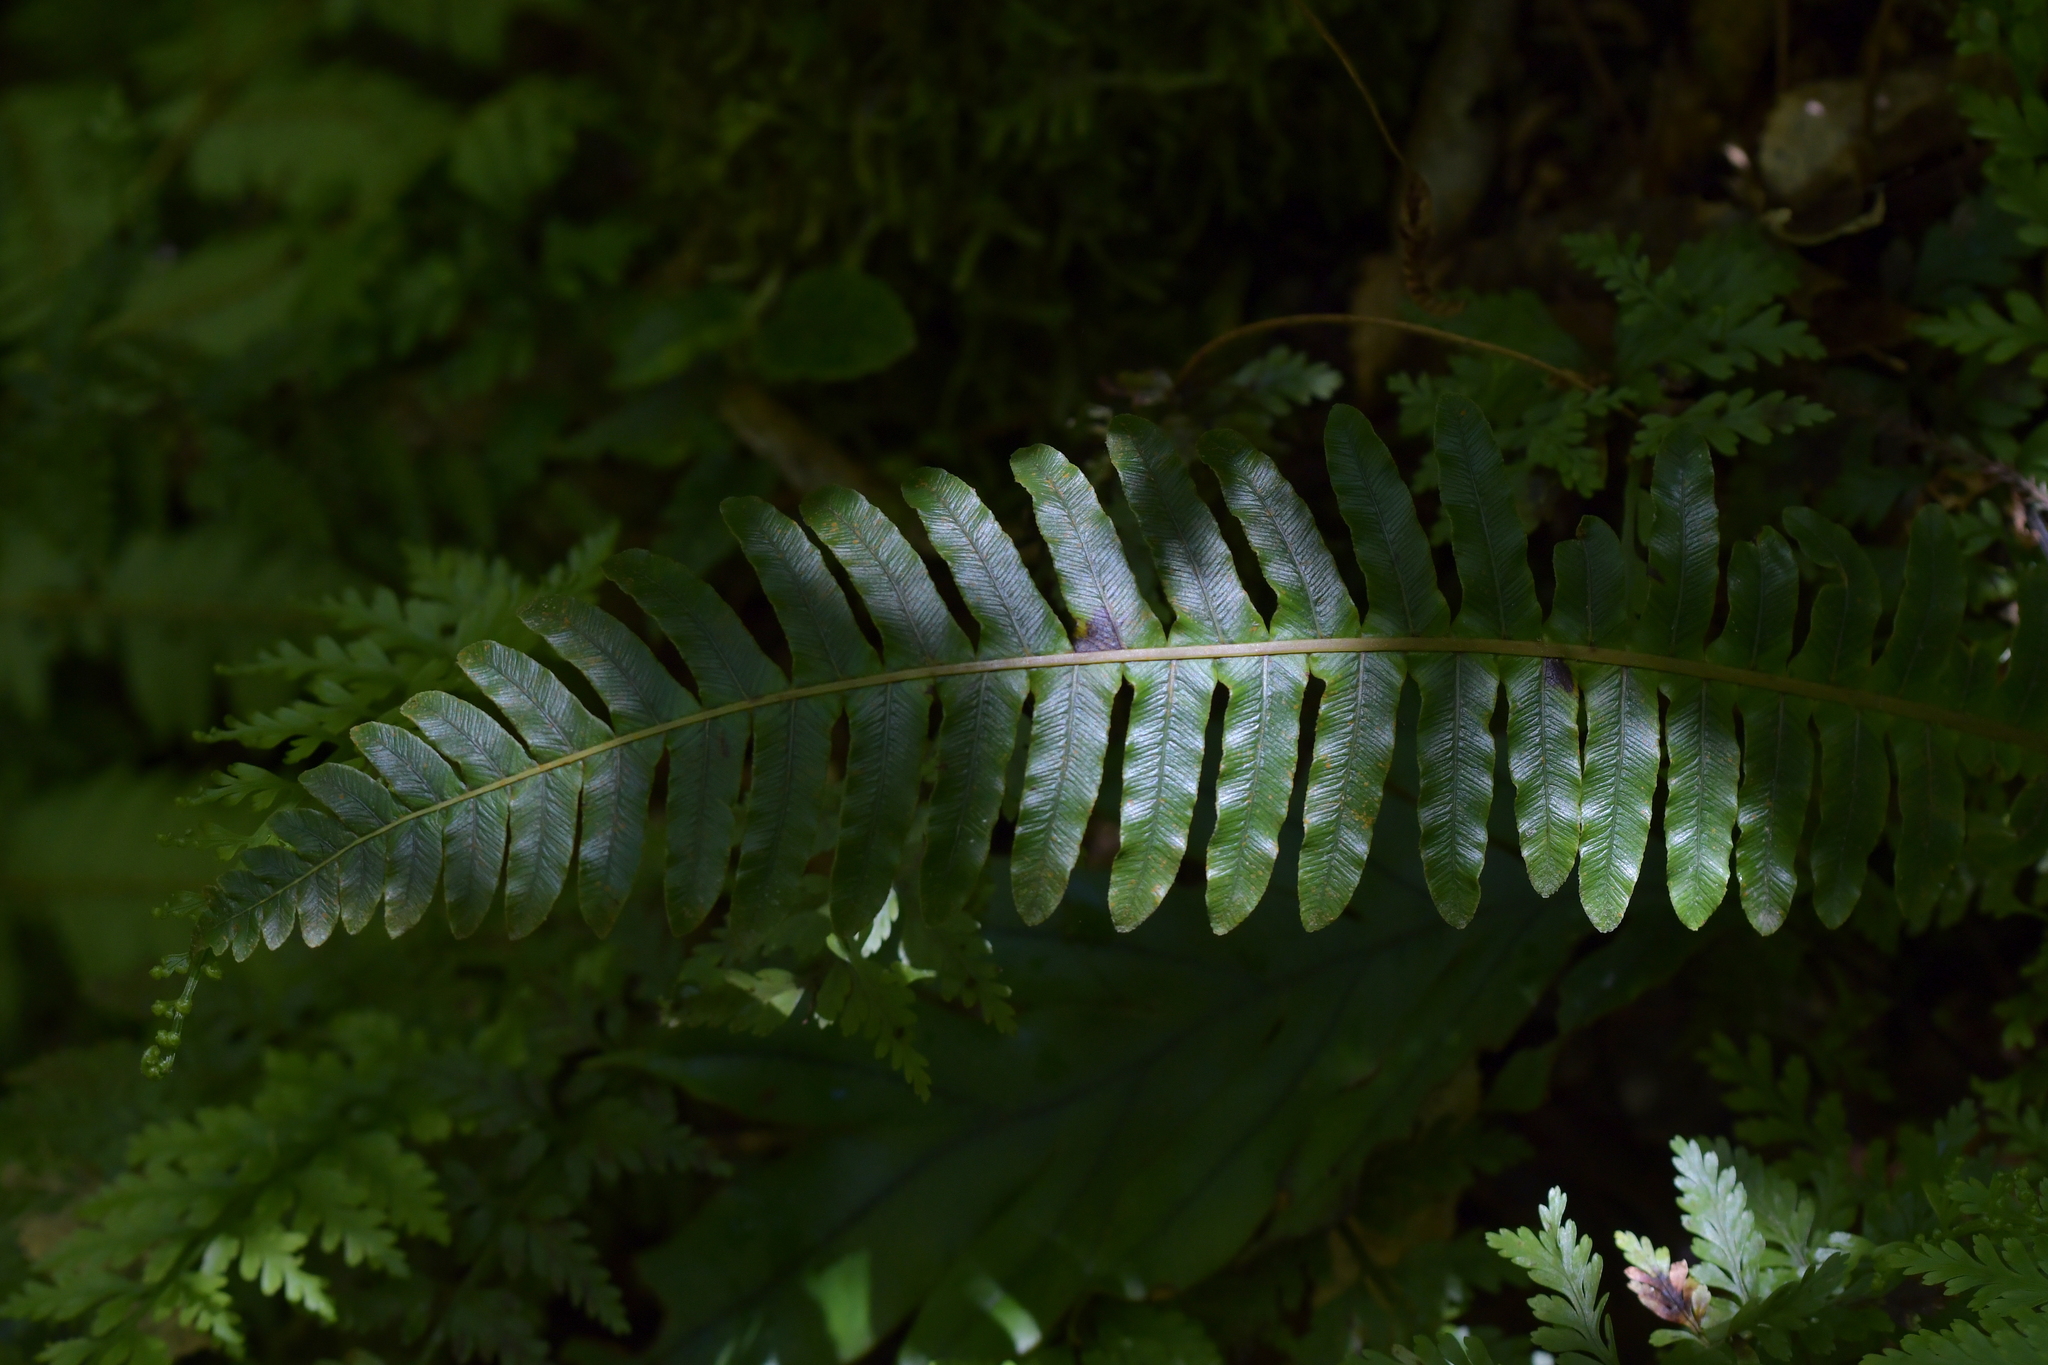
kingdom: Plantae
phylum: Tracheophyta
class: Polypodiopsida
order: Polypodiales
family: Blechnaceae
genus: Lomaria
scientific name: Lomaria discolor
